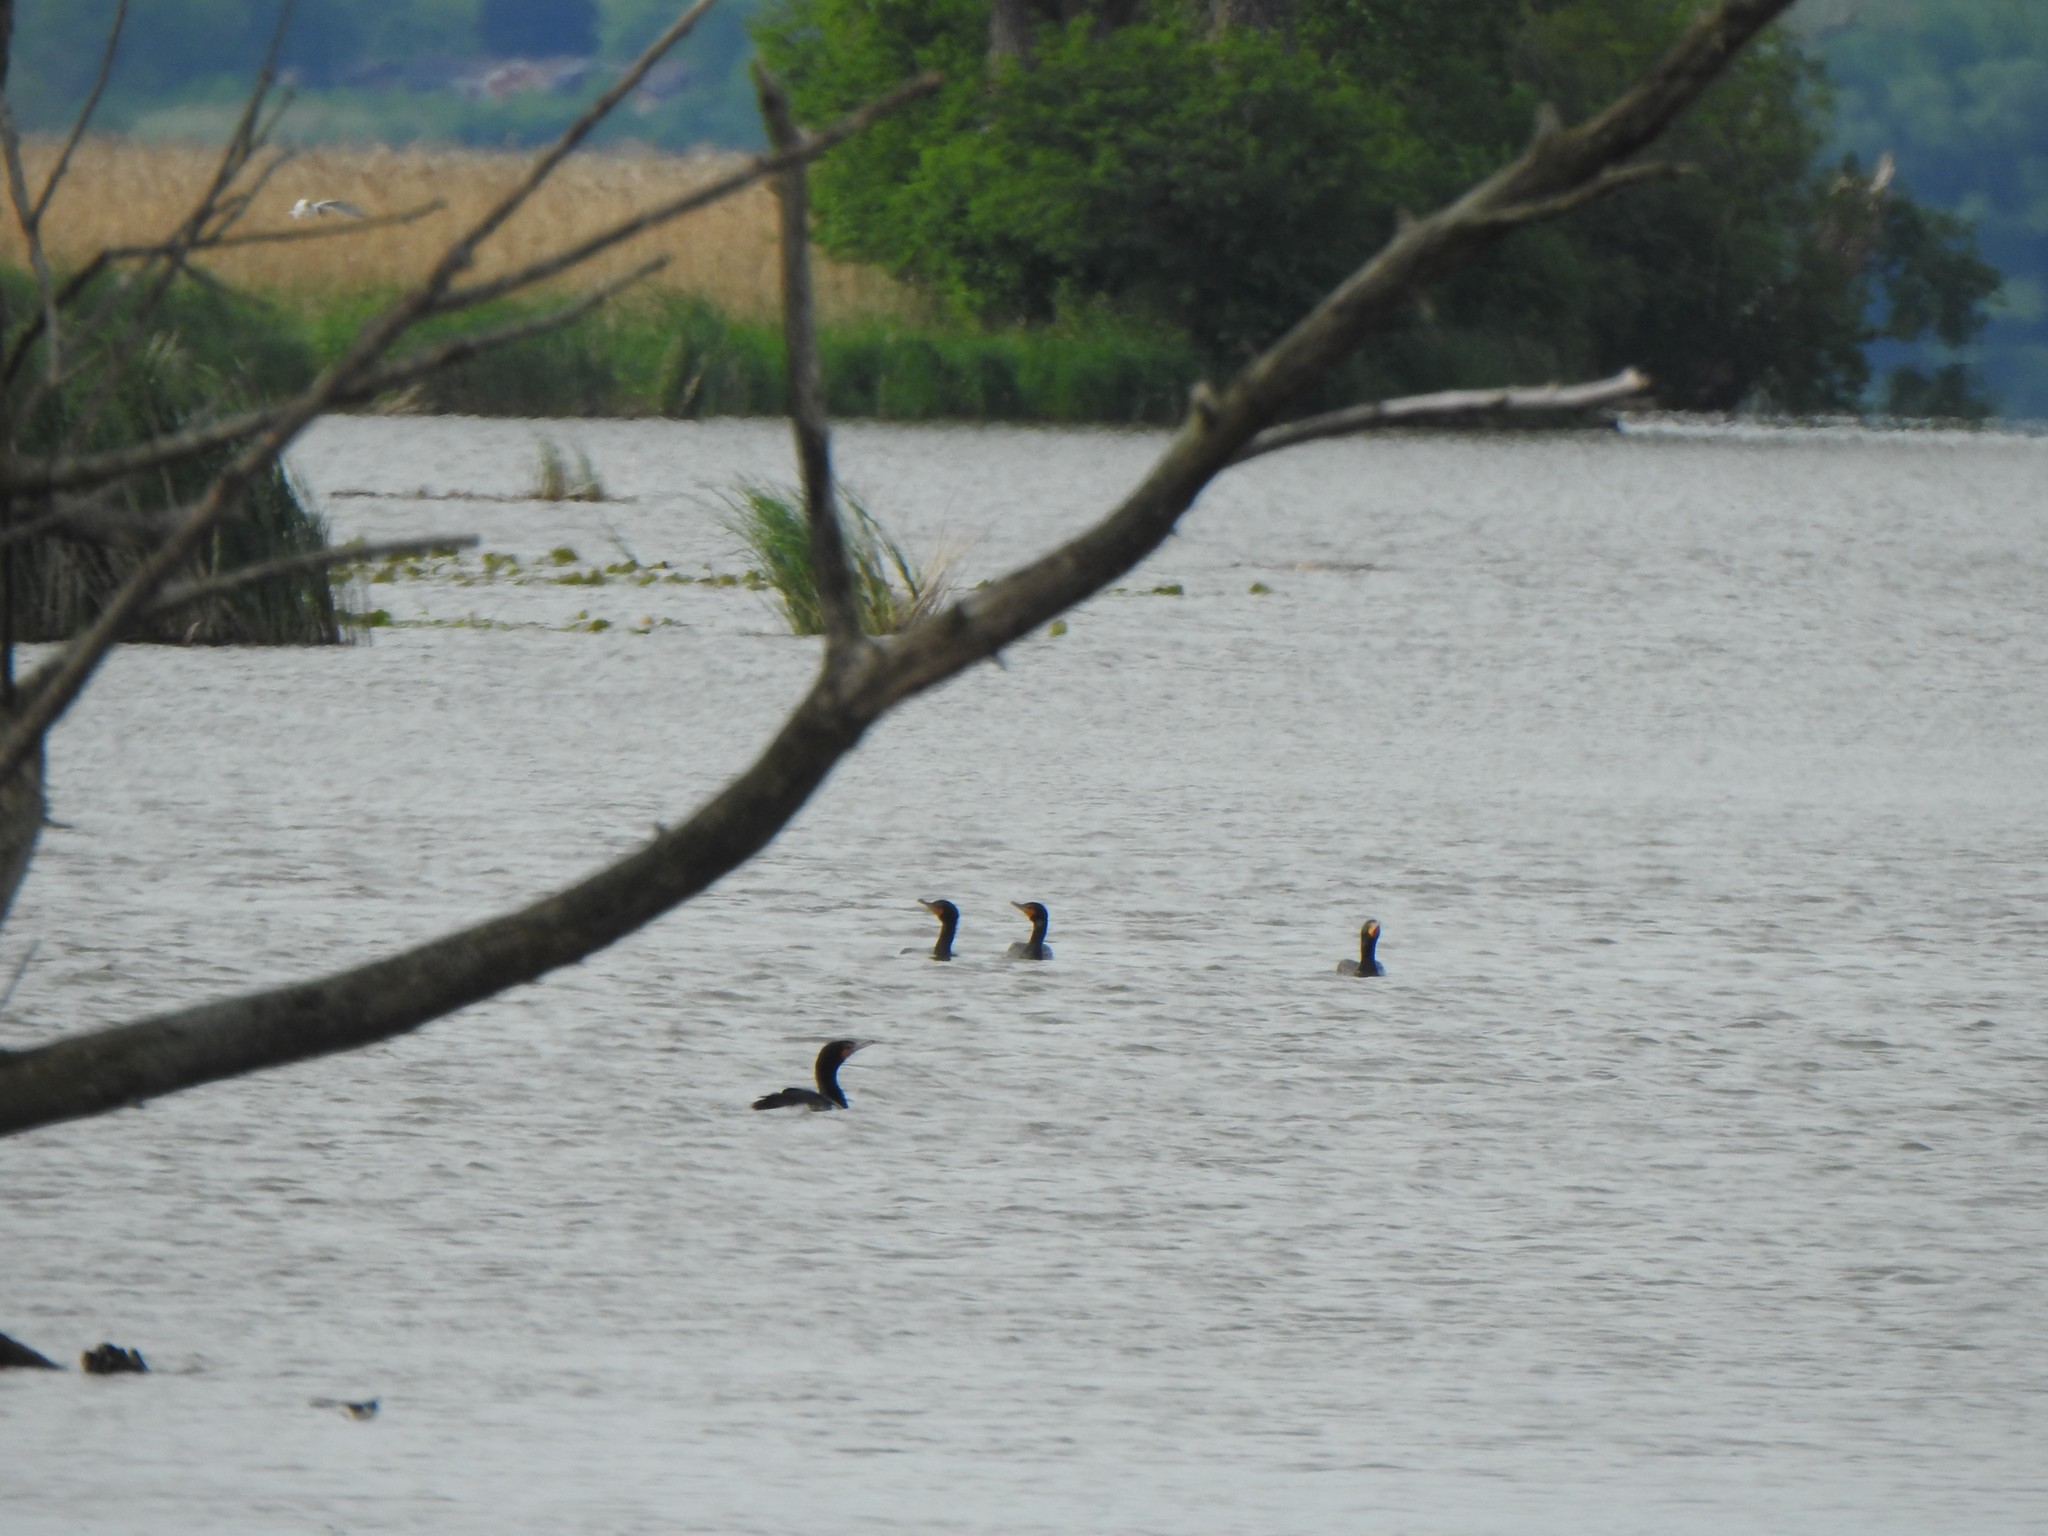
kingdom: Animalia
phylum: Chordata
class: Aves
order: Suliformes
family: Phalacrocoracidae
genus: Phalacrocorax
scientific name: Phalacrocorax auritus
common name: Double-crested cormorant
